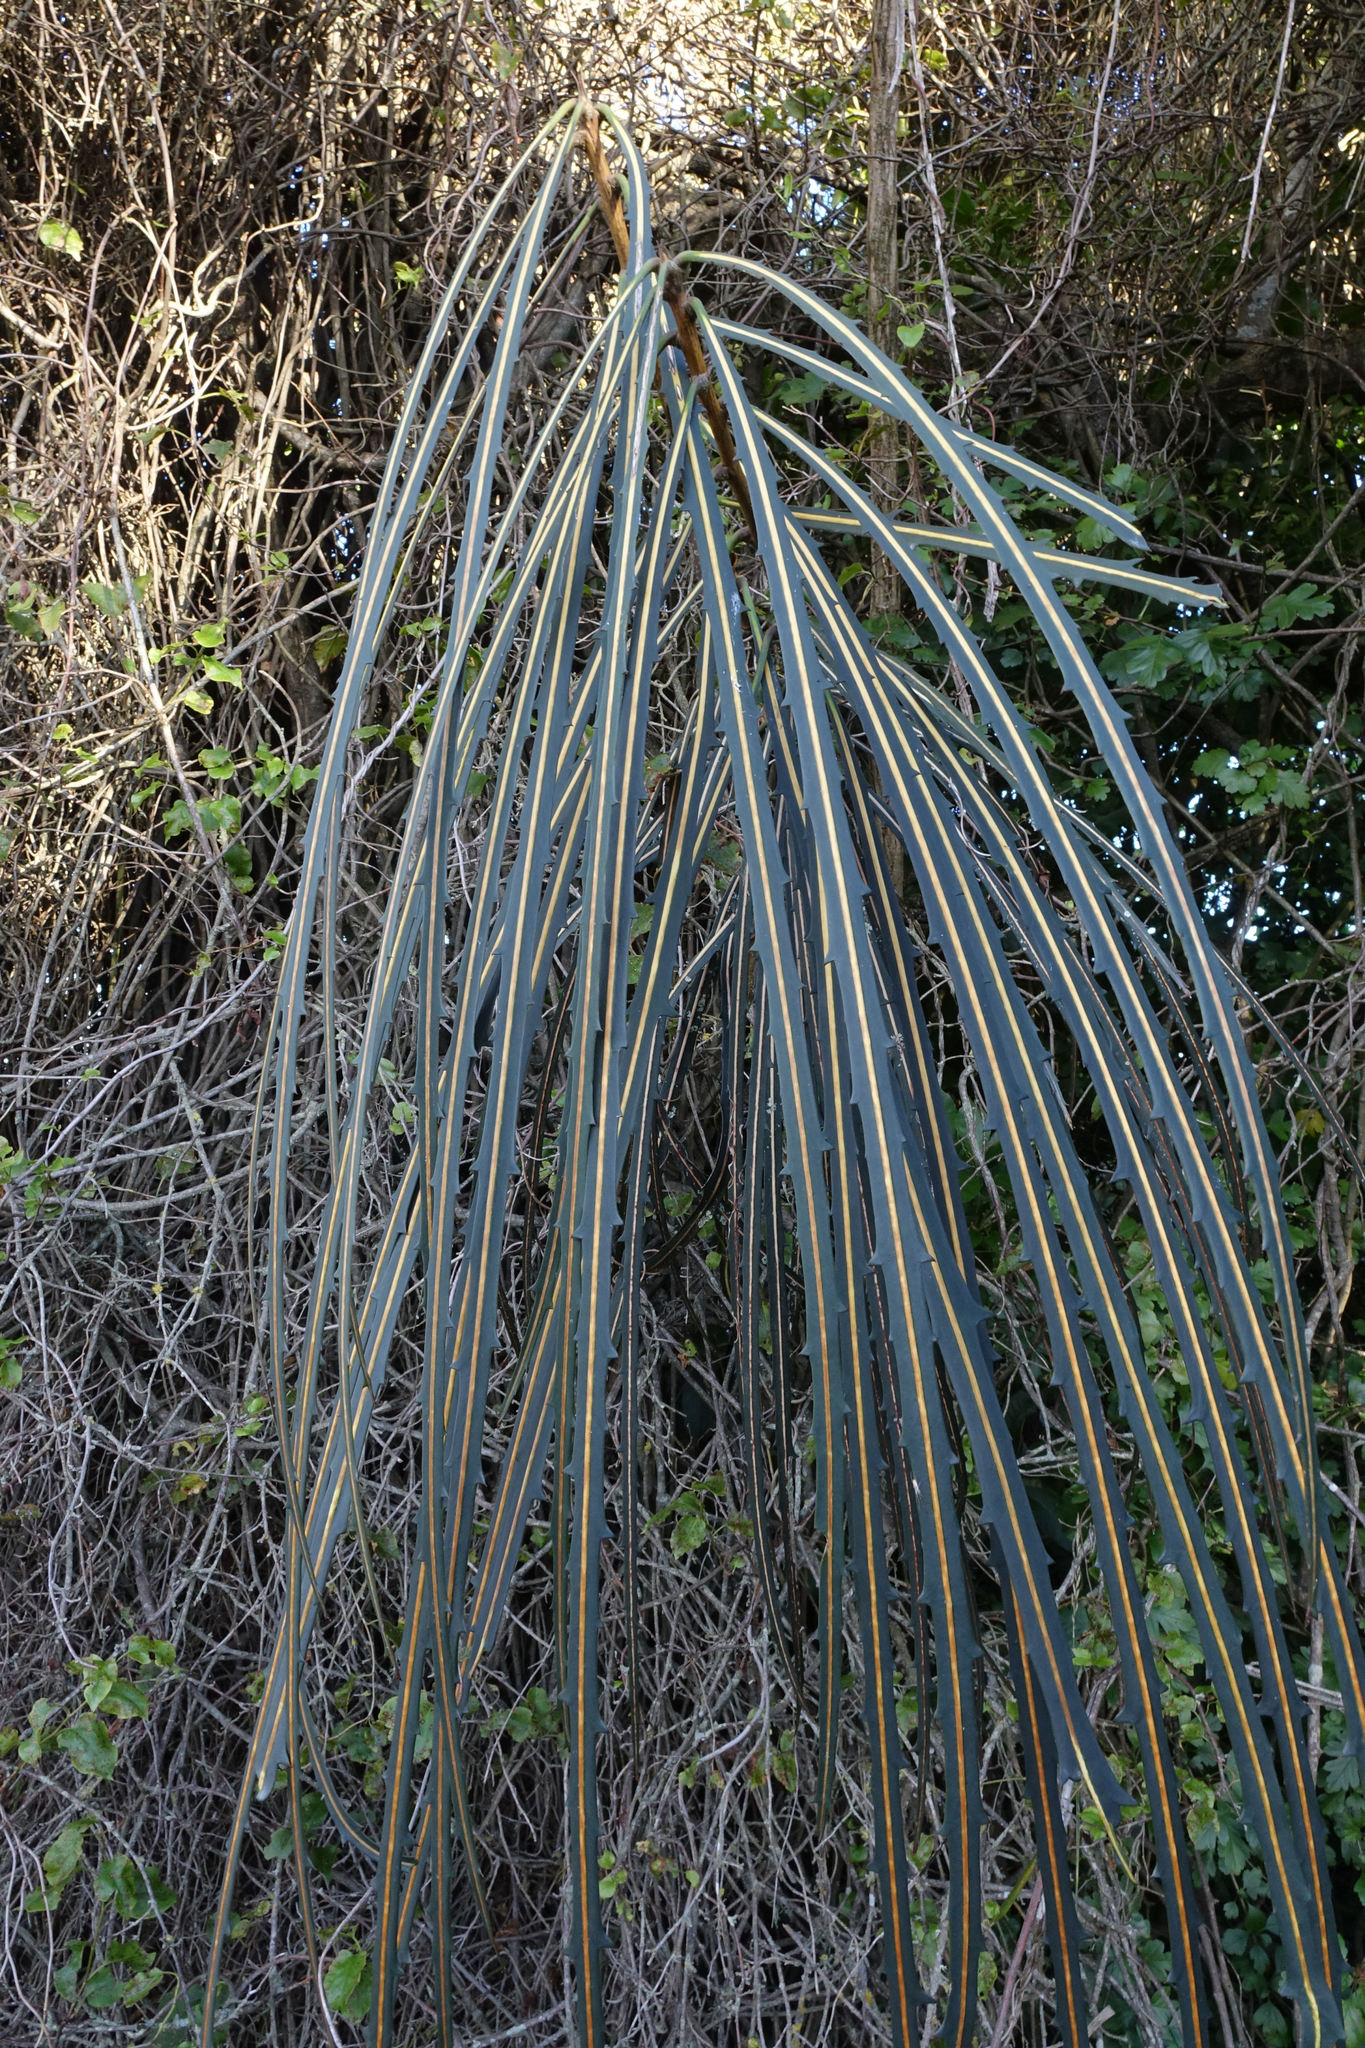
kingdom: Plantae
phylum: Tracheophyta
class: Magnoliopsida
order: Apiales
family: Araliaceae
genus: Pseudopanax
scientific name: Pseudopanax crassifolius
